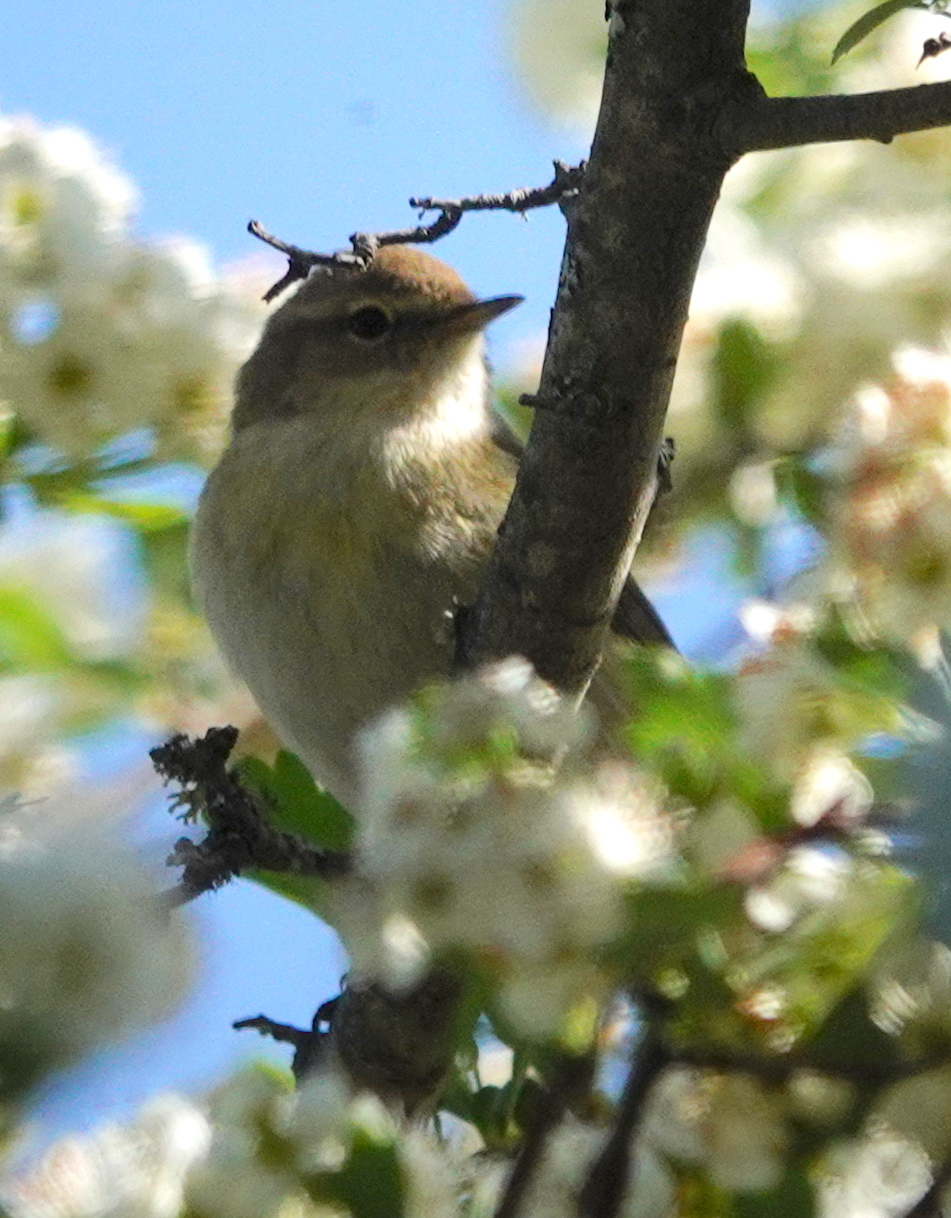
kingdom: Animalia
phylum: Chordata
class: Aves
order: Passeriformes
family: Phylloscopidae
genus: Phylloscopus
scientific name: Phylloscopus ibericus
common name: Iberian chiffchaff
